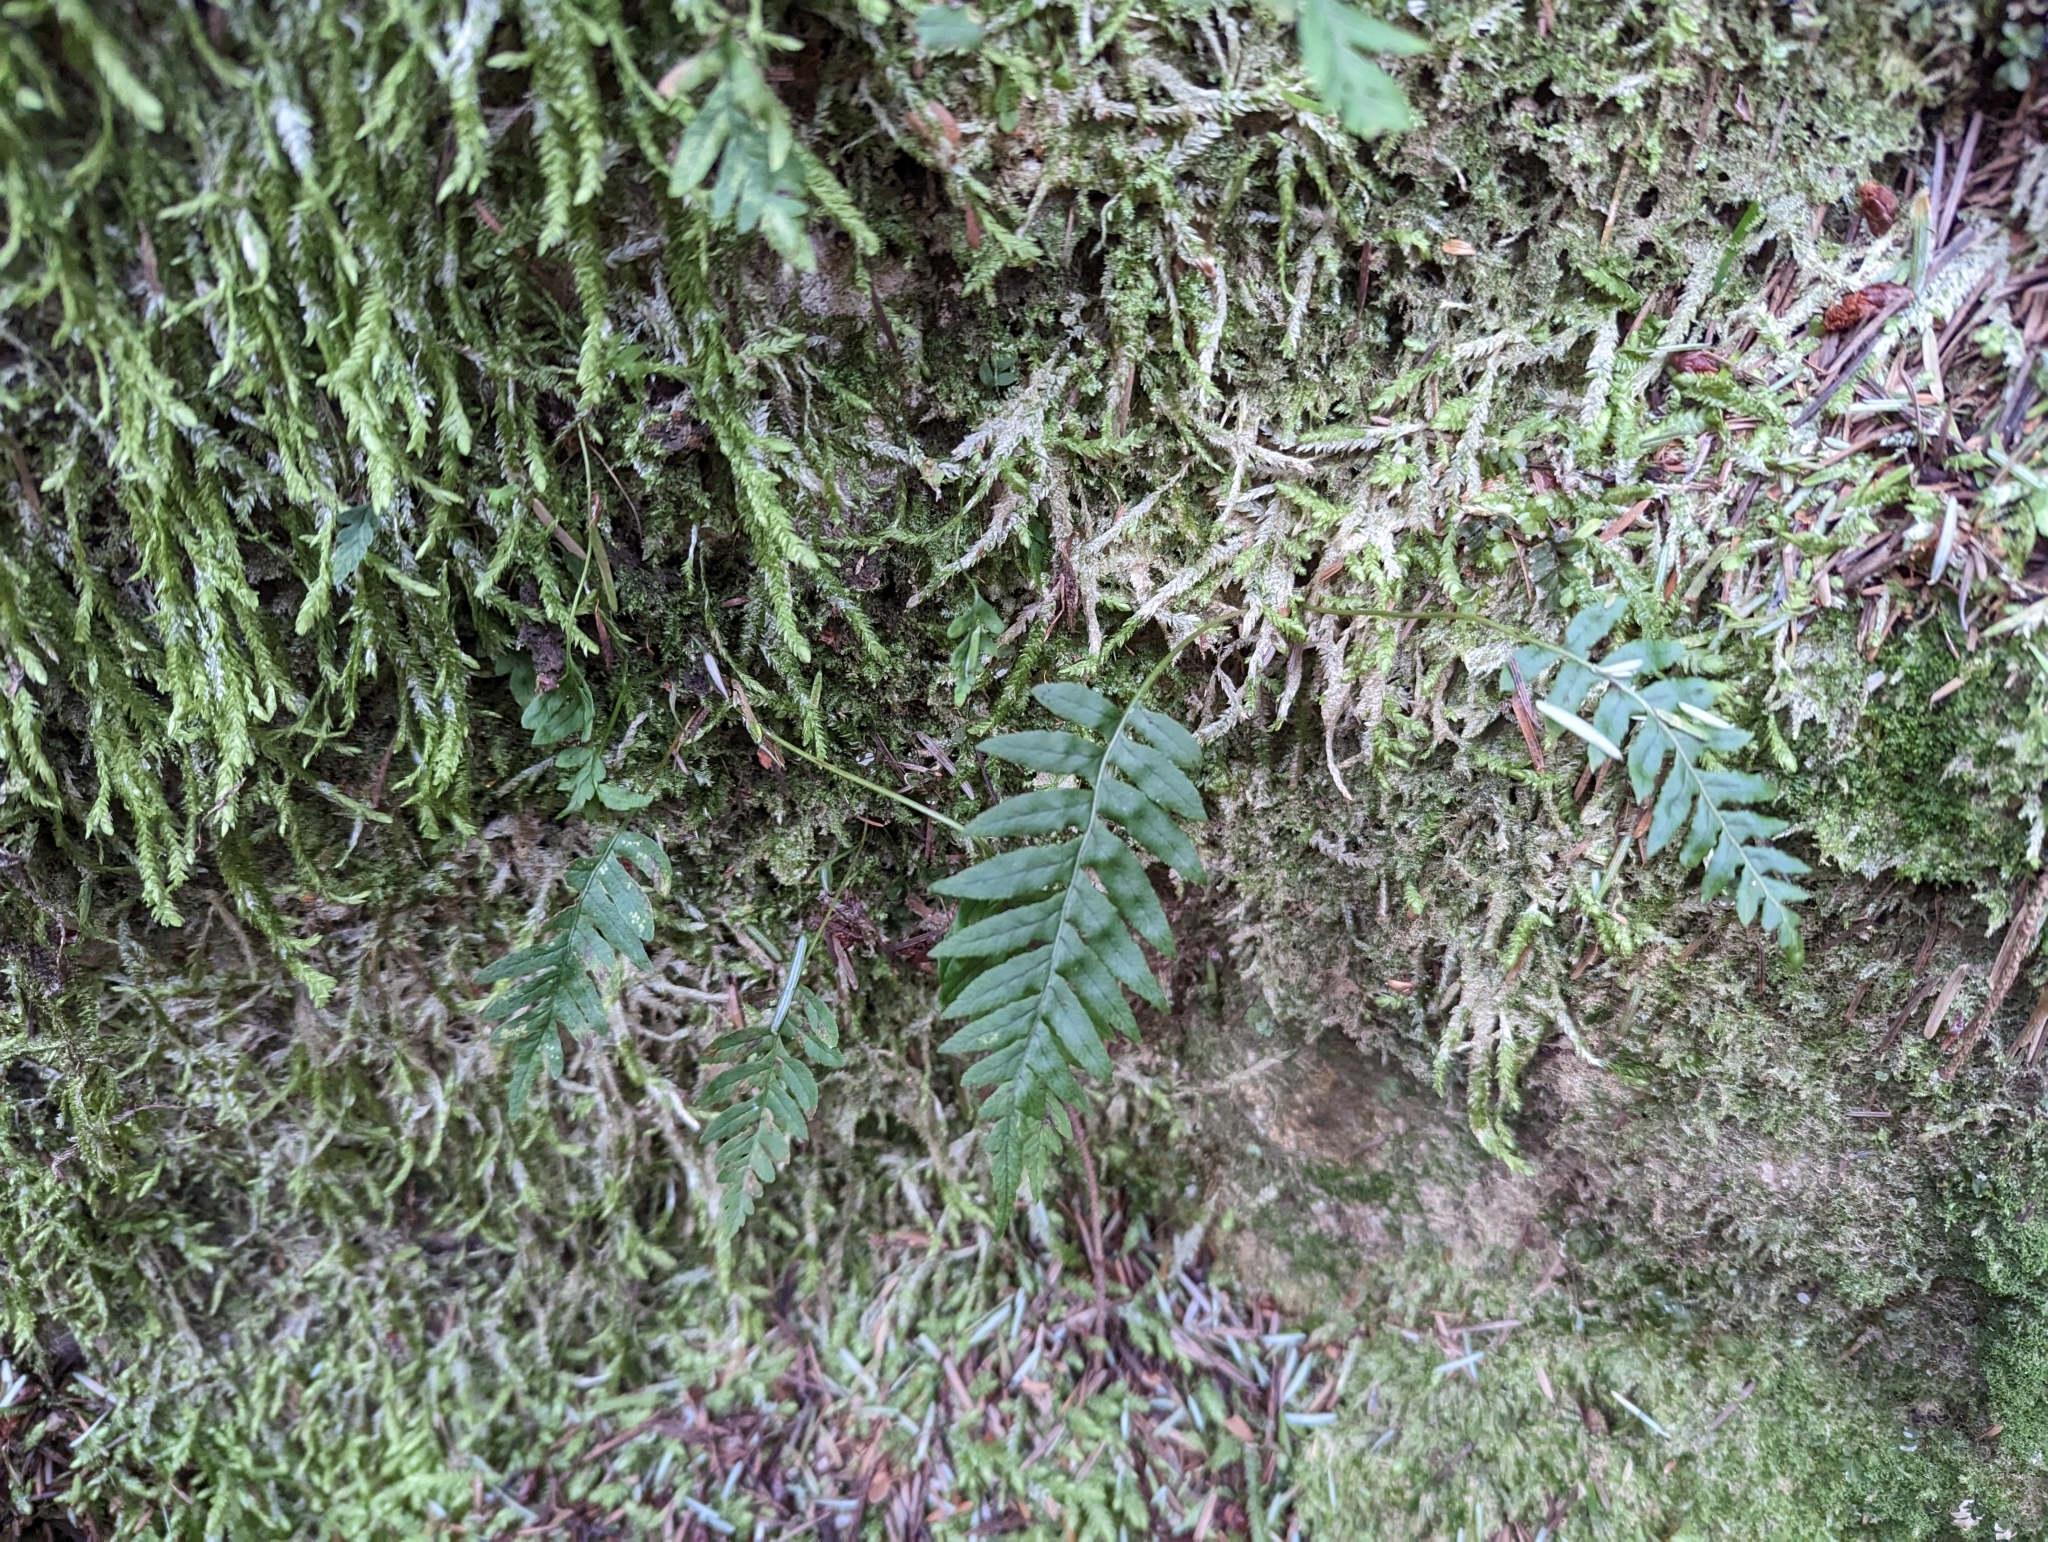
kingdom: Plantae
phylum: Tracheophyta
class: Polypodiopsida
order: Polypodiales
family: Polypodiaceae
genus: Polypodium
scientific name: Polypodium glycyrrhiza
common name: Licorice fern
